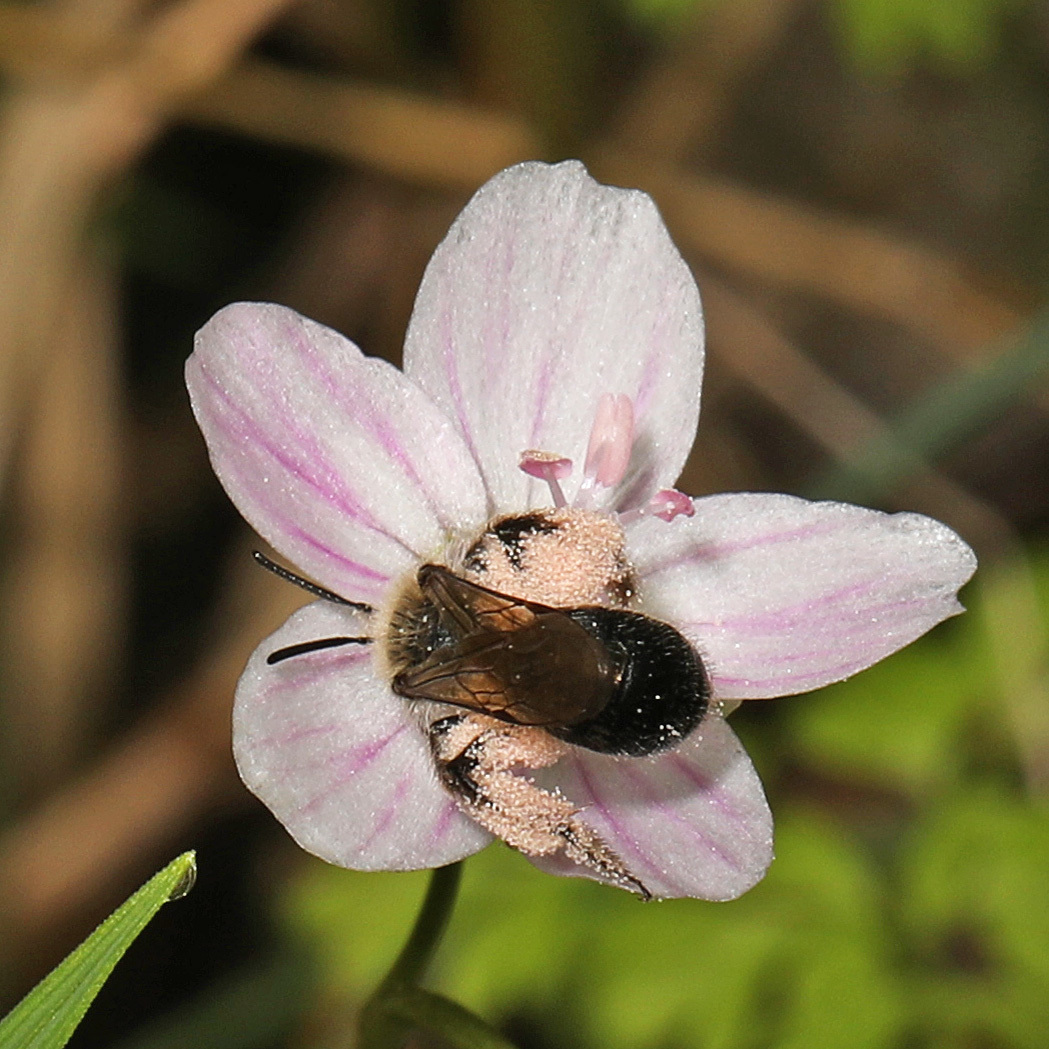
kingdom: Animalia
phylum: Arthropoda
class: Insecta
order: Hymenoptera
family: Andrenidae
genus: Andrena
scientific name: Andrena erigeniae
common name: Spring beauty miner
